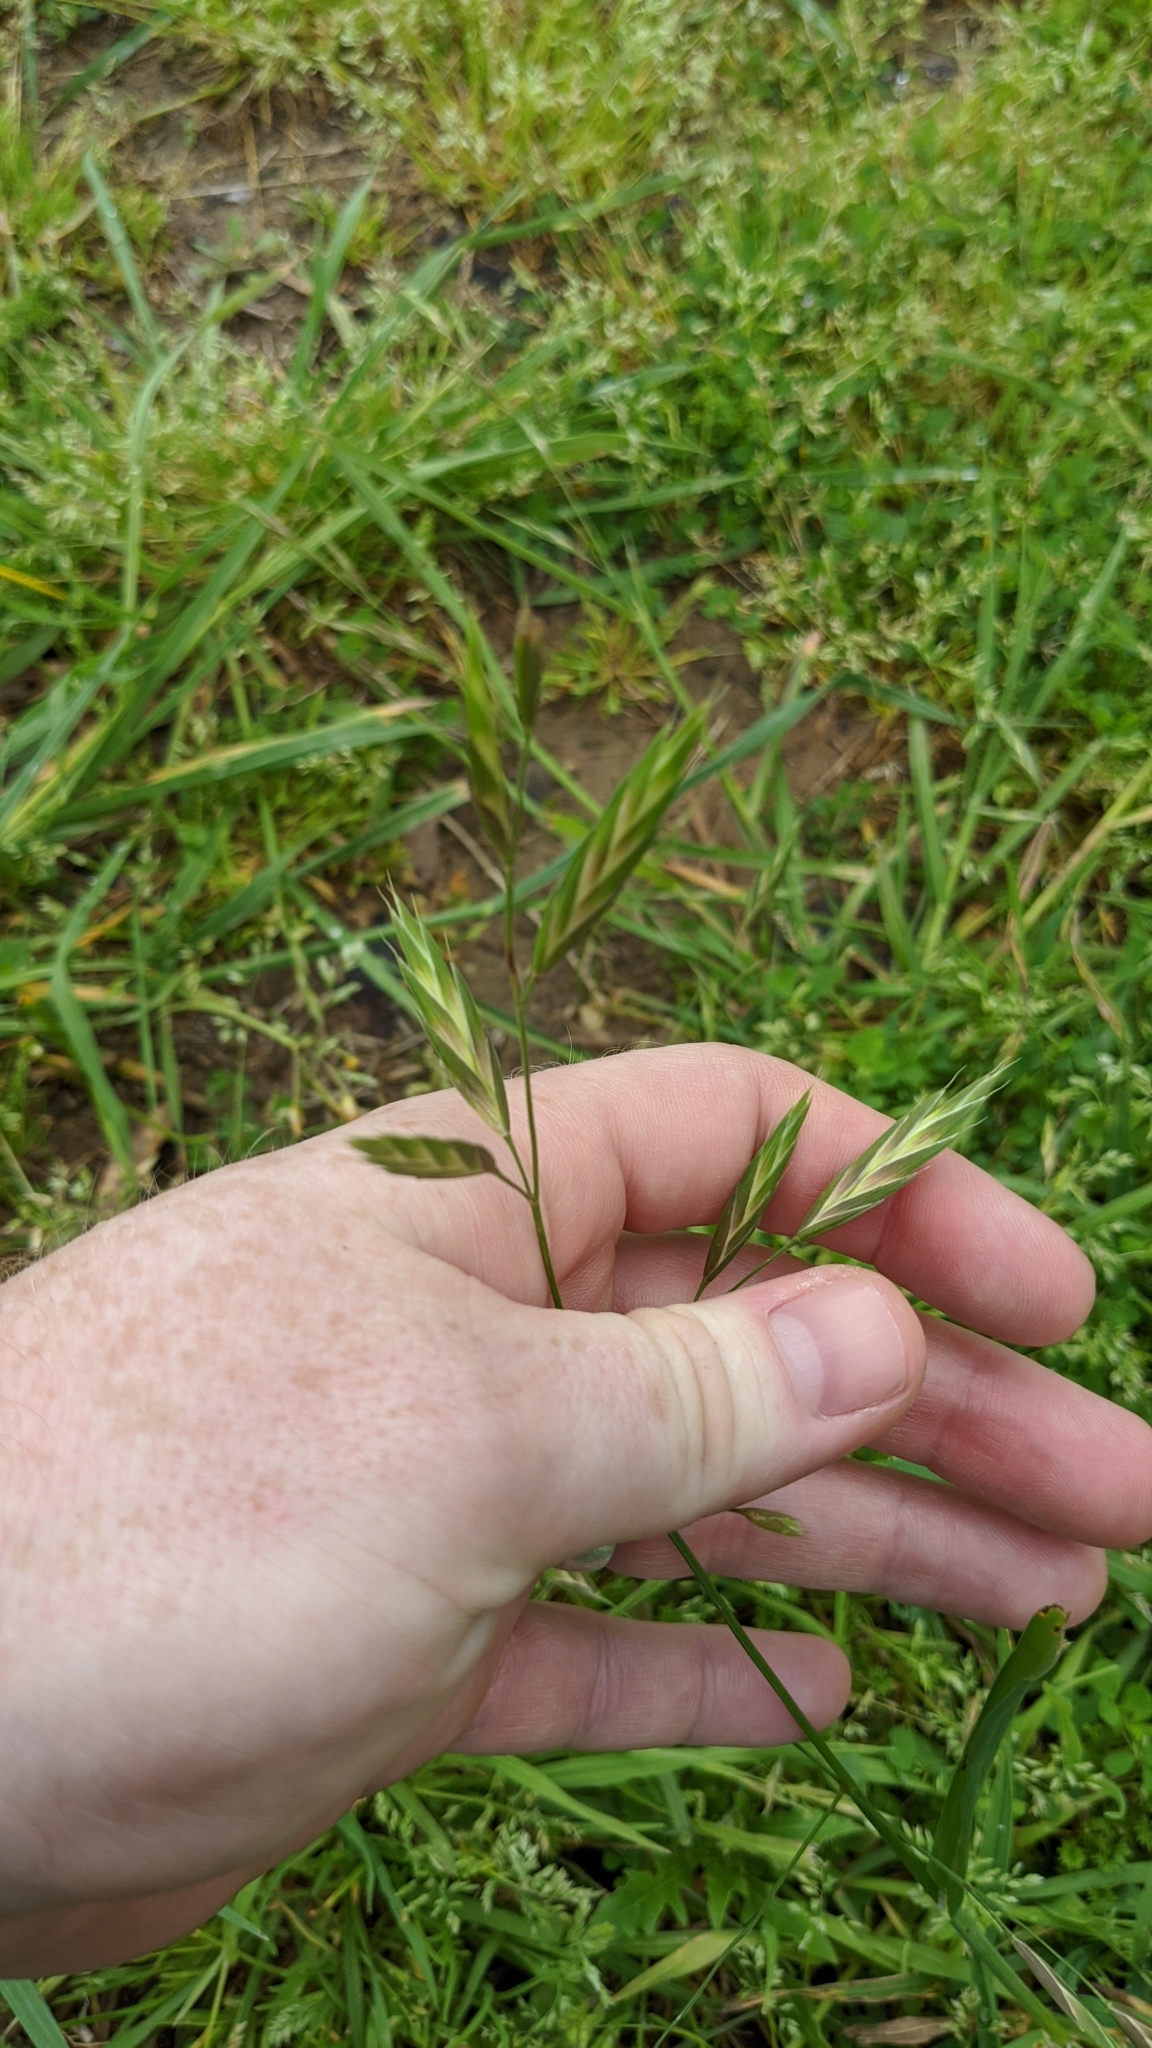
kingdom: Plantae
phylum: Tracheophyta
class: Liliopsida
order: Poales
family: Poaceae
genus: Bromus
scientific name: Bromus catharticus
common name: Rescuegrass
